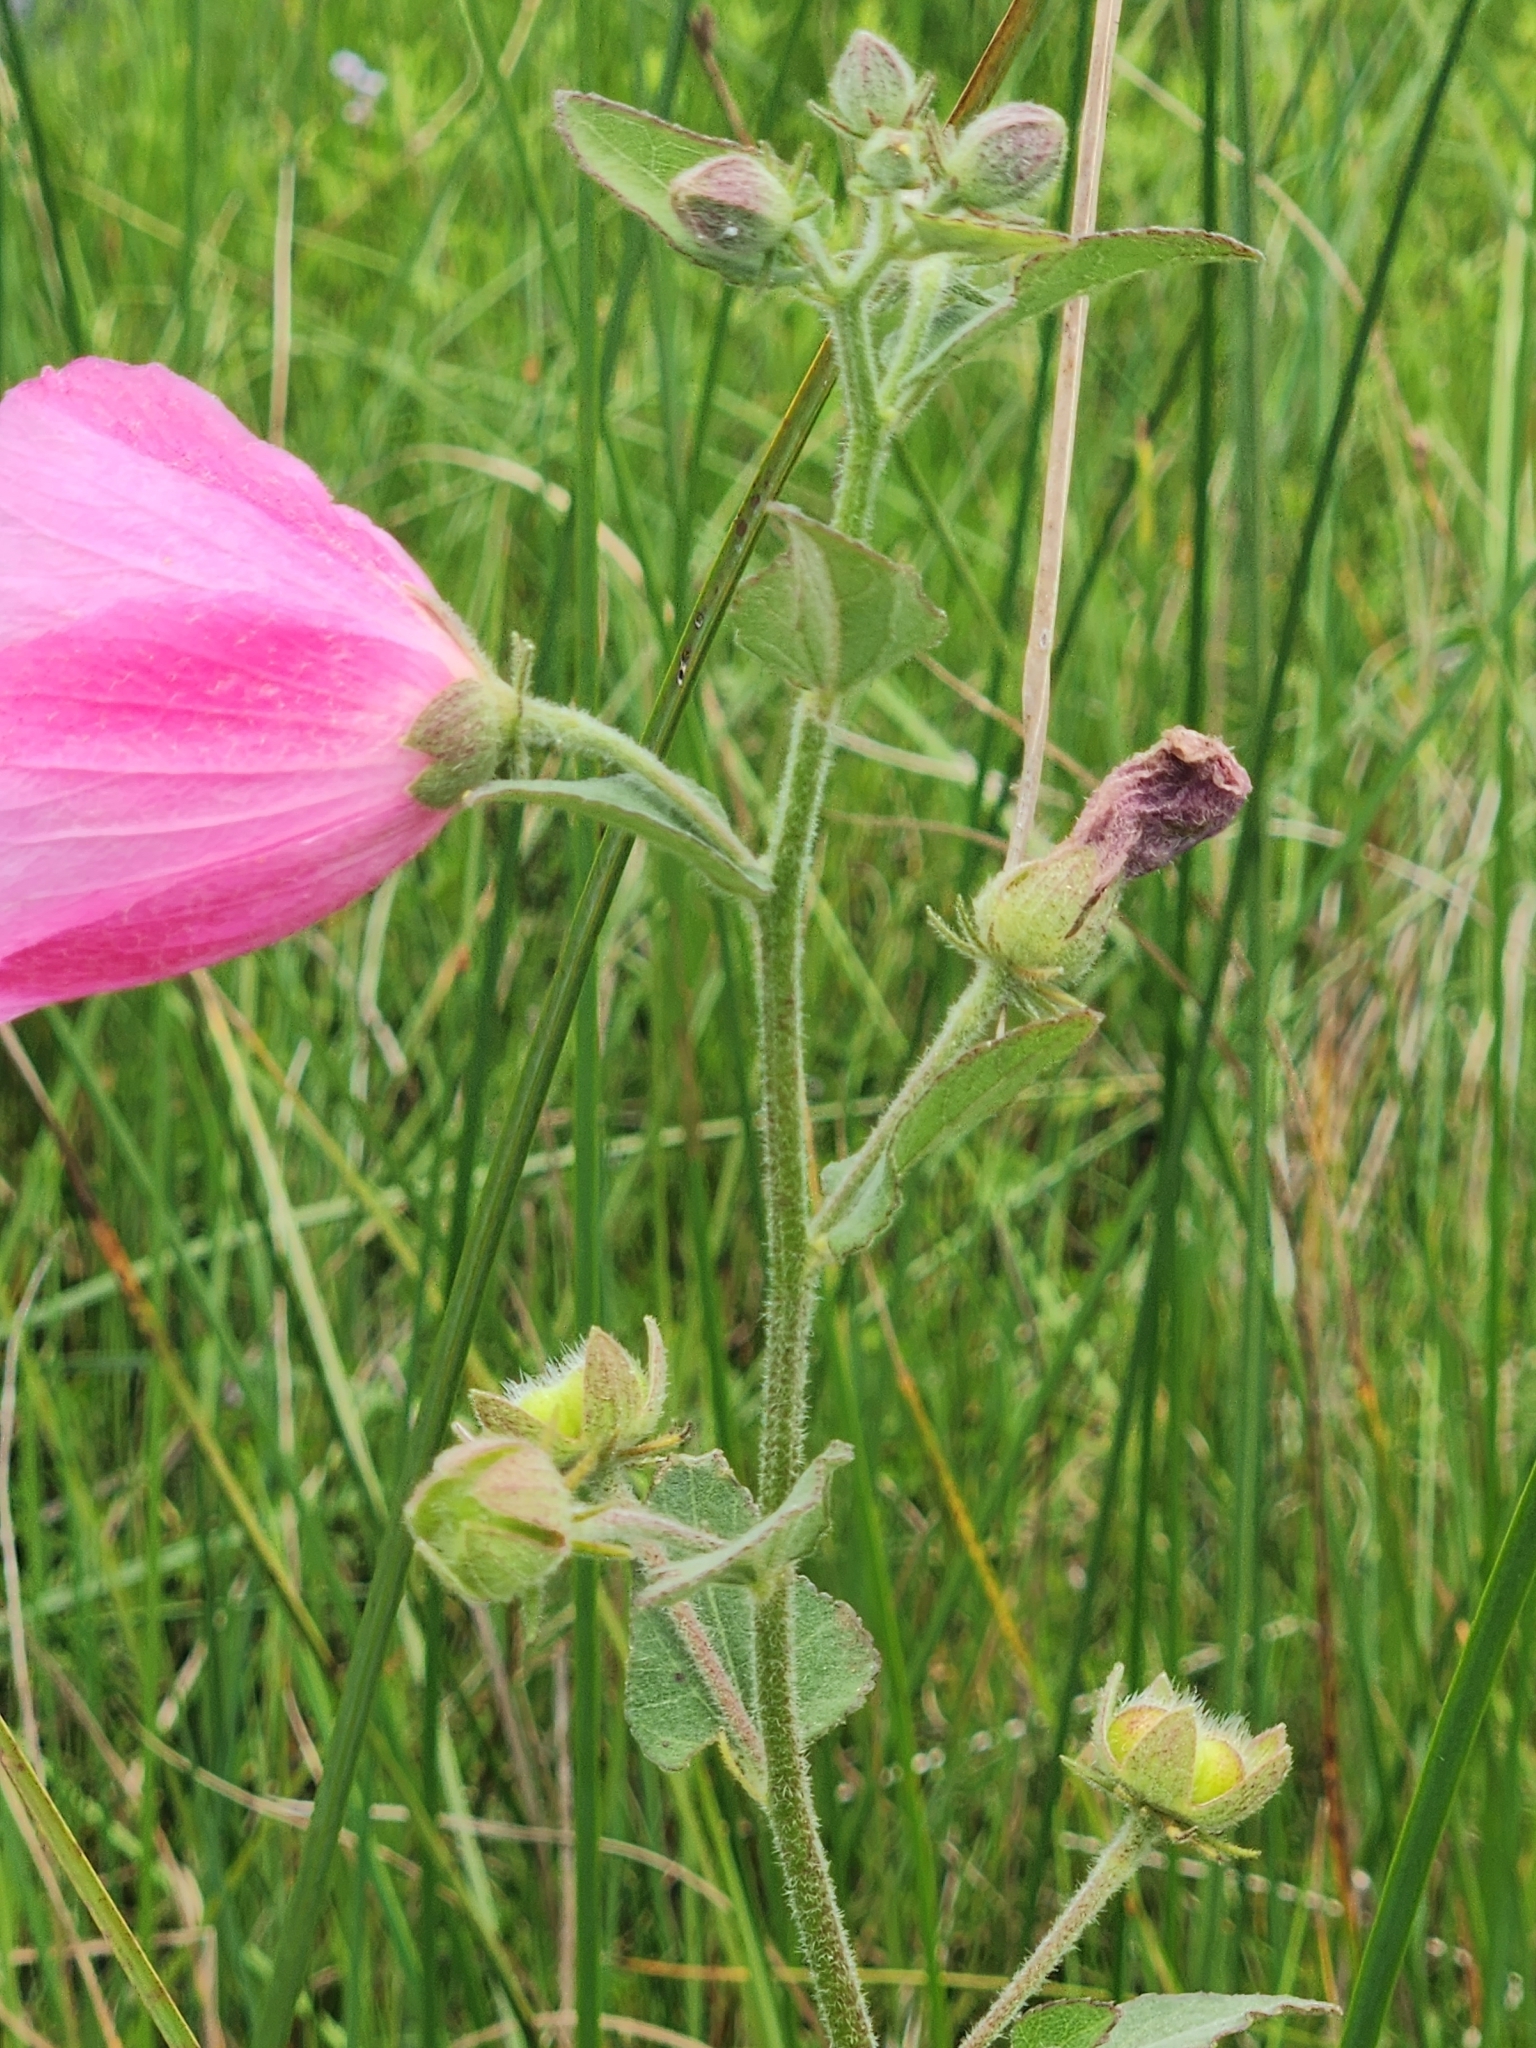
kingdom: Plantae
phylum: Tracheophyta
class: Magnoliopsida
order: Malvales
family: Malvaceae
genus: Kosteletzkya
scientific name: Kosteletzkya pentacarpos
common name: Virginia saltmarsh mallow
